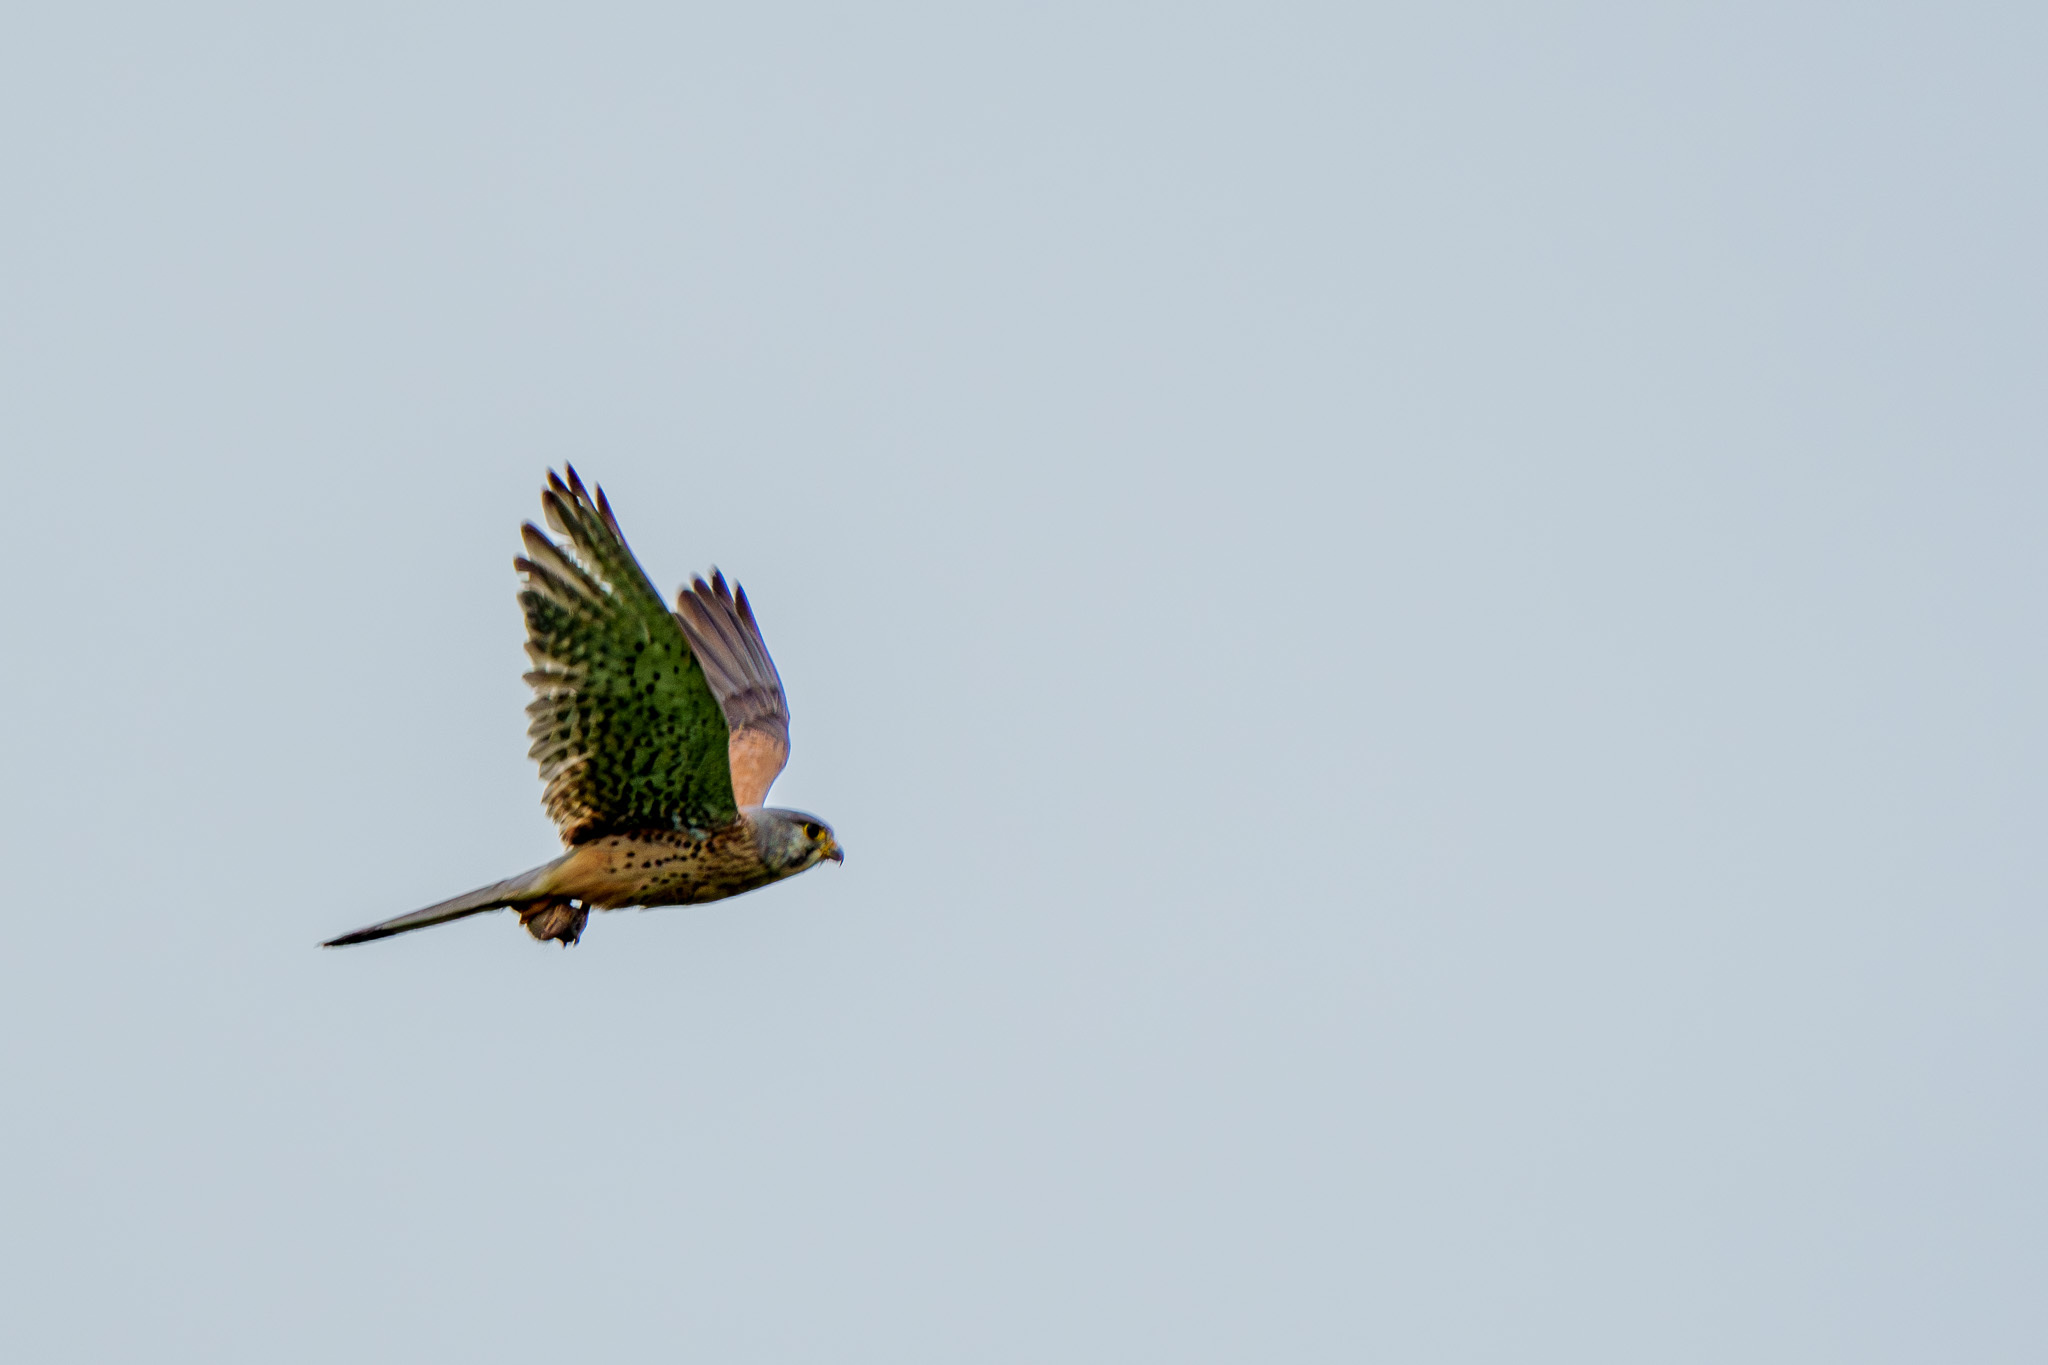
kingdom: Animalia
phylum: Chordata
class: Aves
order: Falconiformes
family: Falconidae
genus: Falco
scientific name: Falco tinnunculus
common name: Common kestrel
